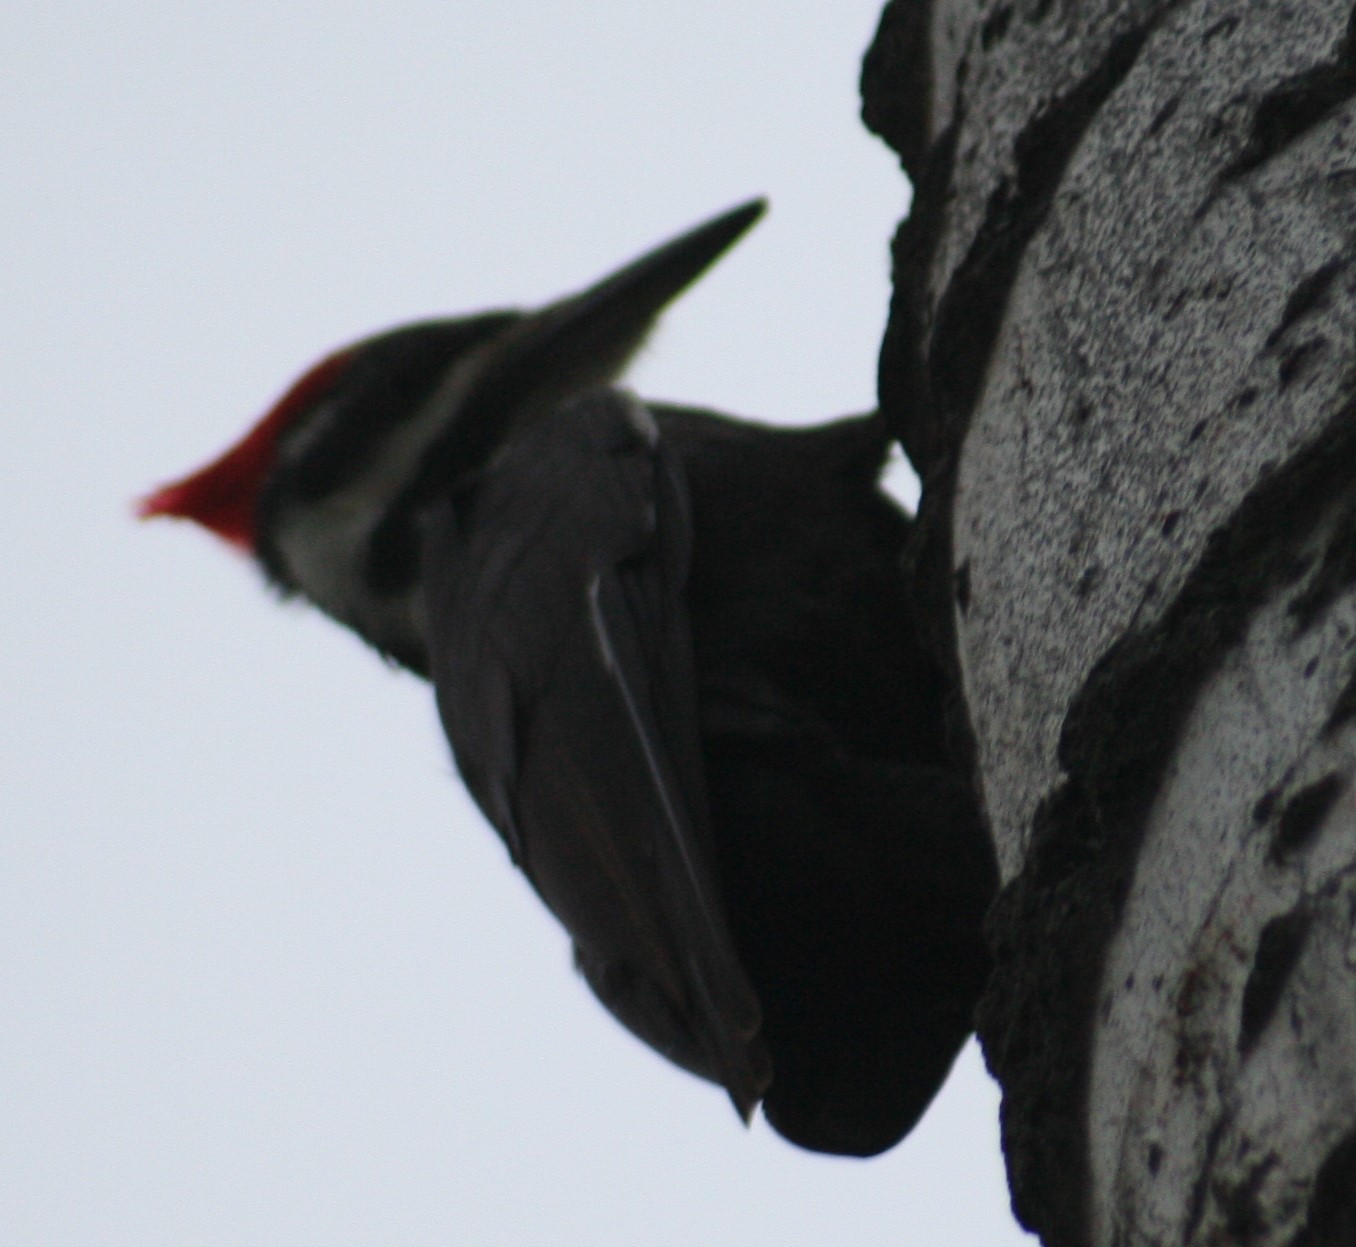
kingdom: Animalia
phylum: Chordata
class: Aves
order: Piciformes
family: Picidae
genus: Dryocopus
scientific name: Dryocopus pileatus
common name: Pileated woodpecker
